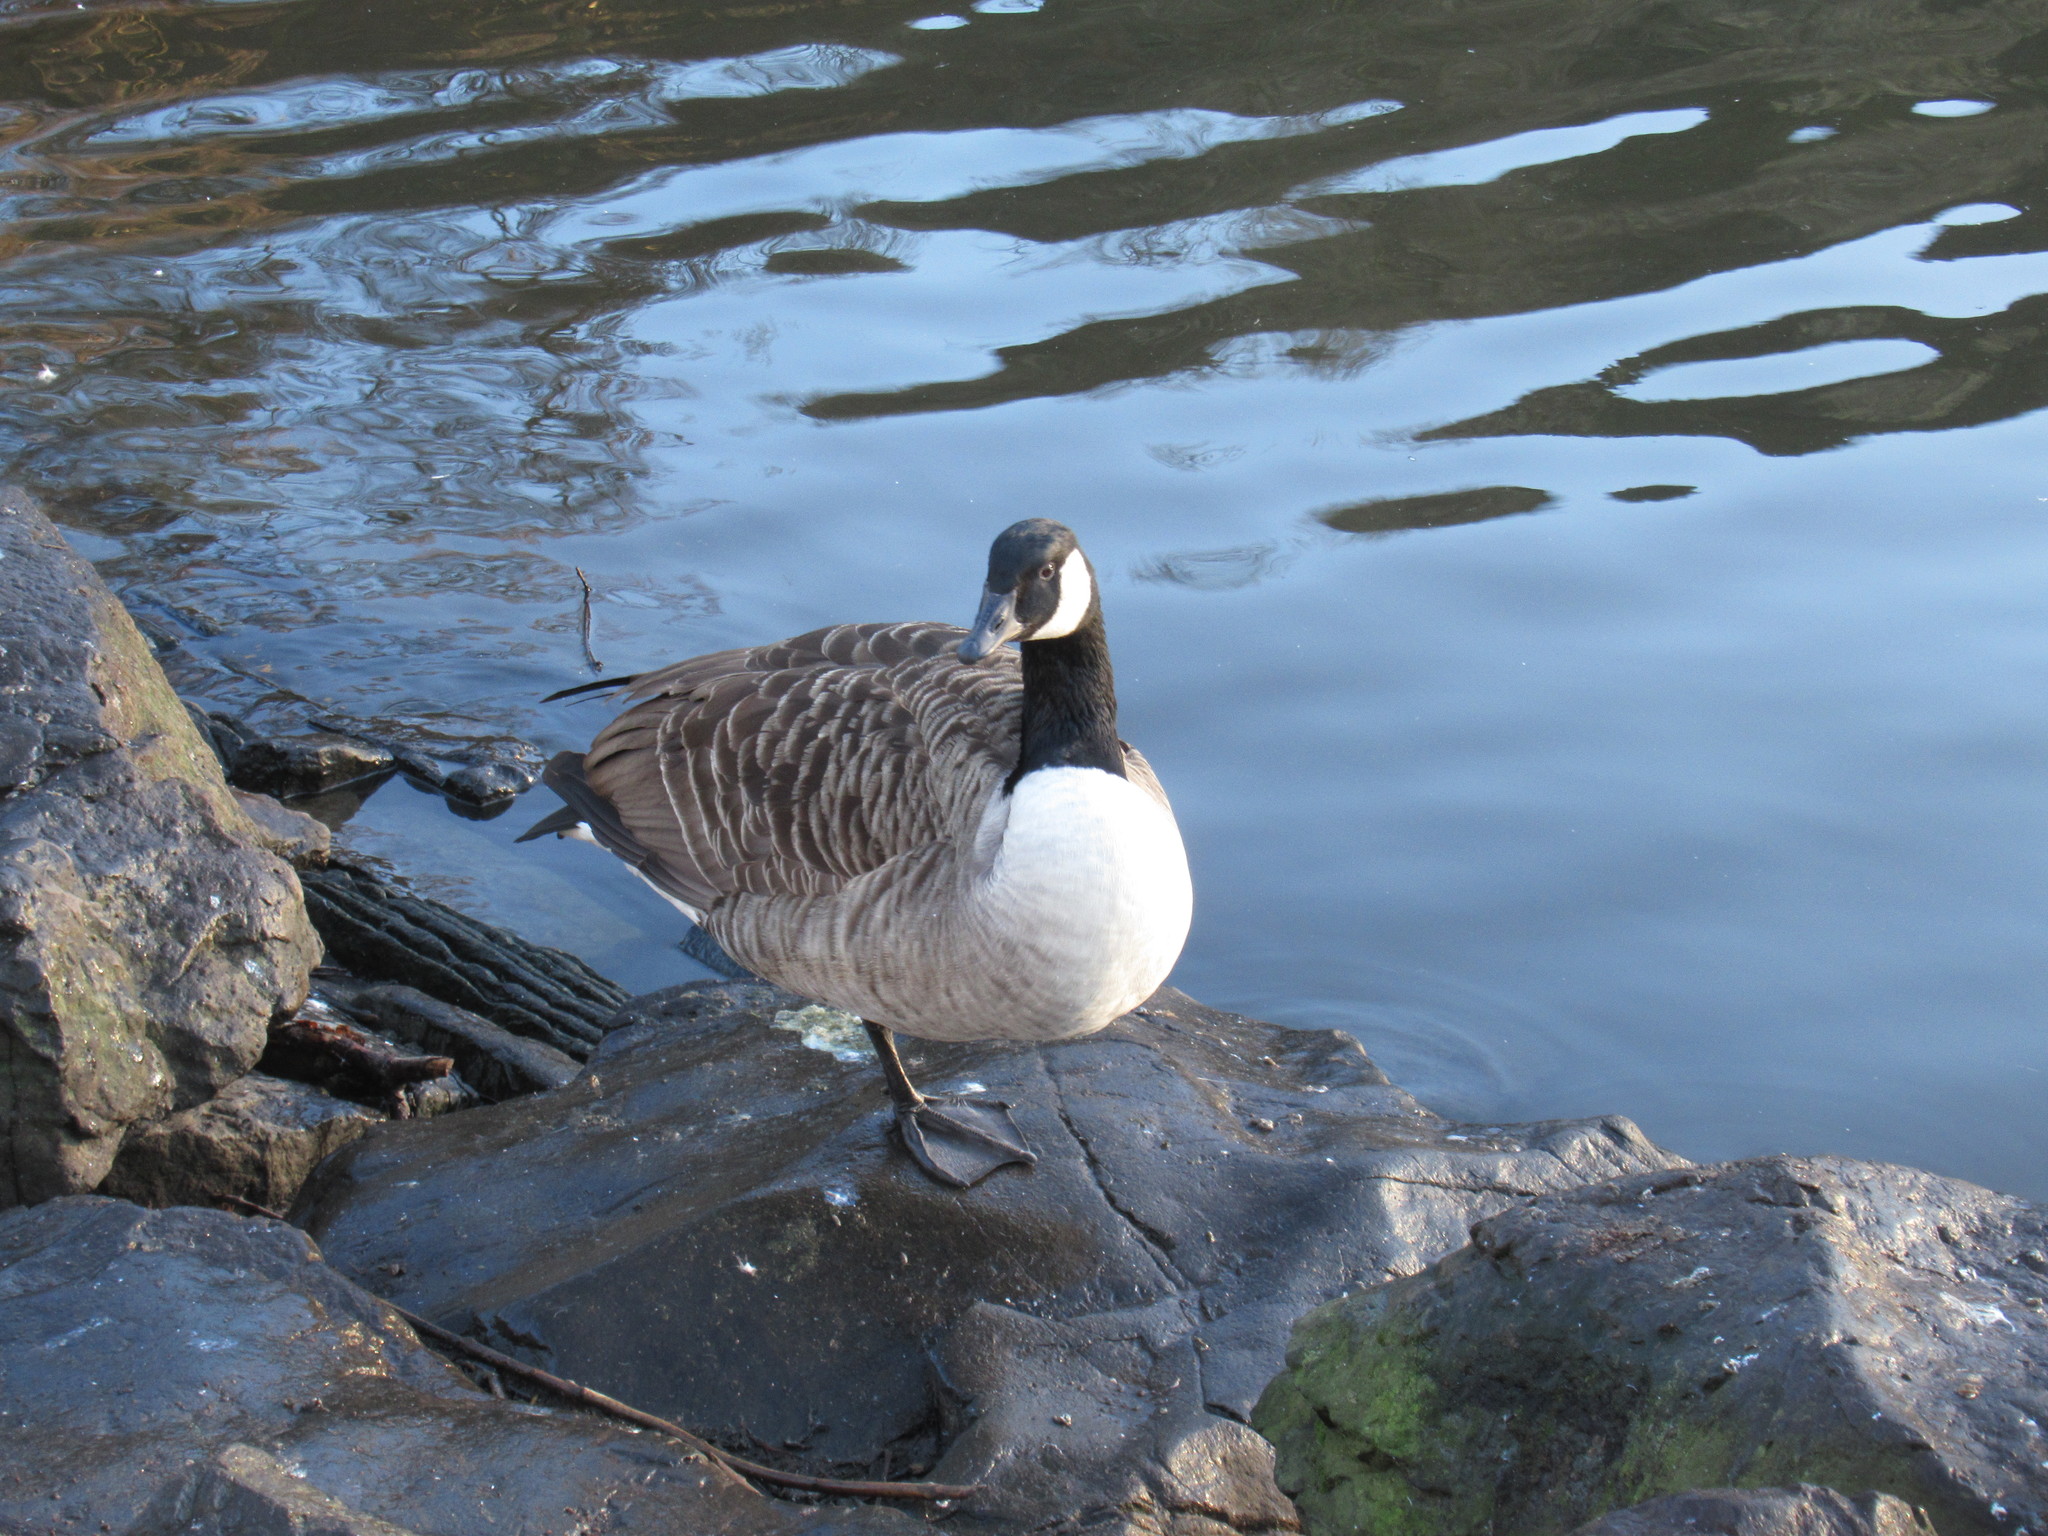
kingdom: Animalia
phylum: Chordata
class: Aves
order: Anseriformes
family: Anatidae
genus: Branta
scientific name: Branta canadensis
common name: Canada goose
